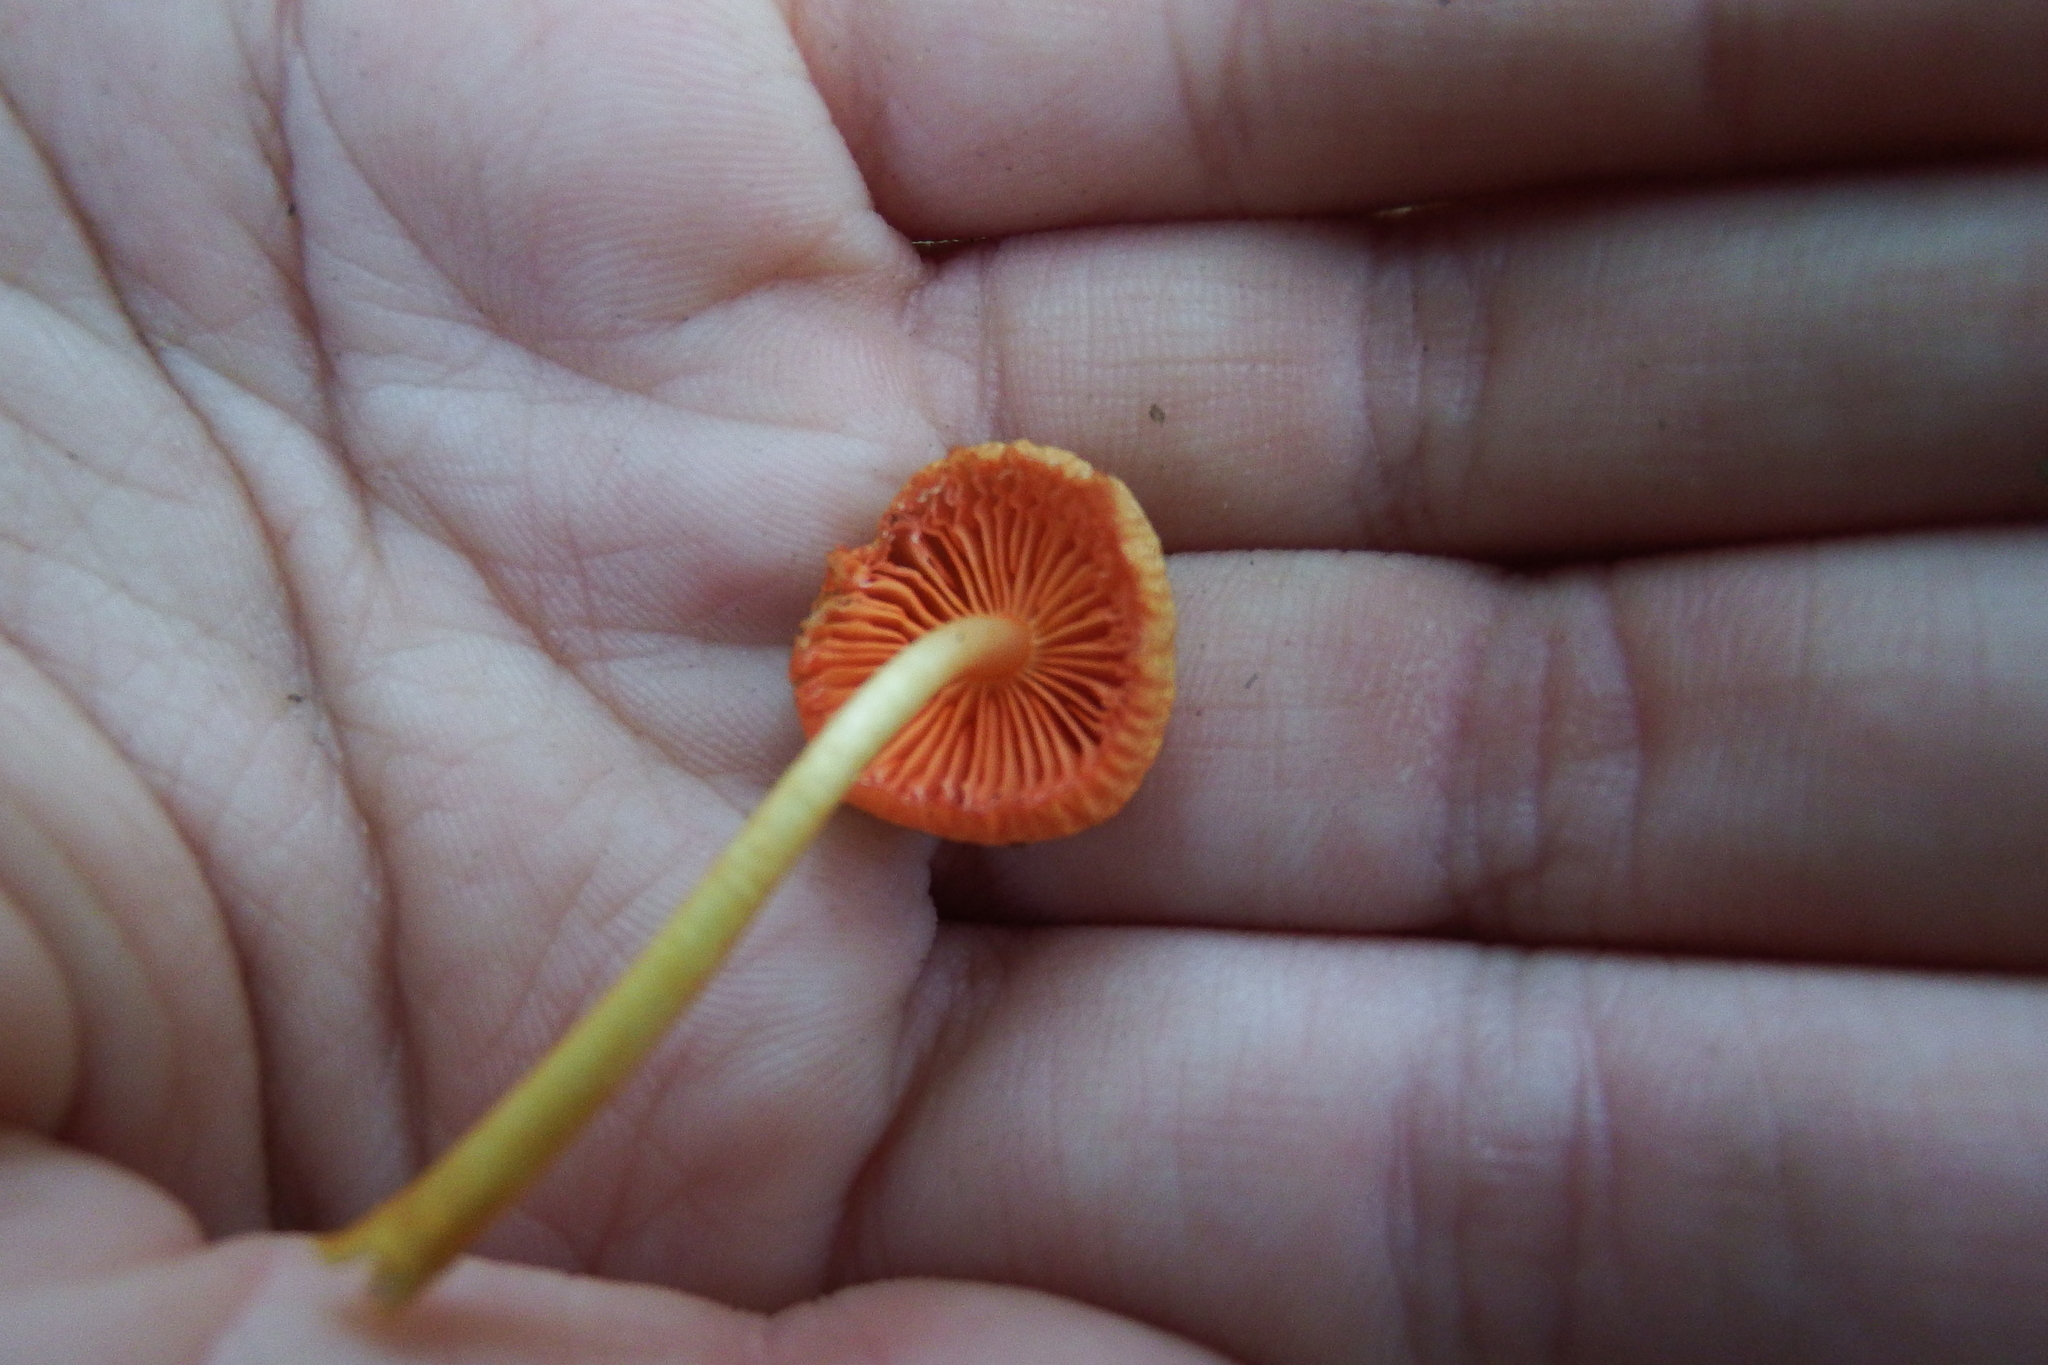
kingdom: Fungi
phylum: Basidiomycota
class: Agaricomycetes
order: Agaricales
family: Mycenaceae
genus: Mycena
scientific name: Mycena leaiana
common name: Orange mycena
